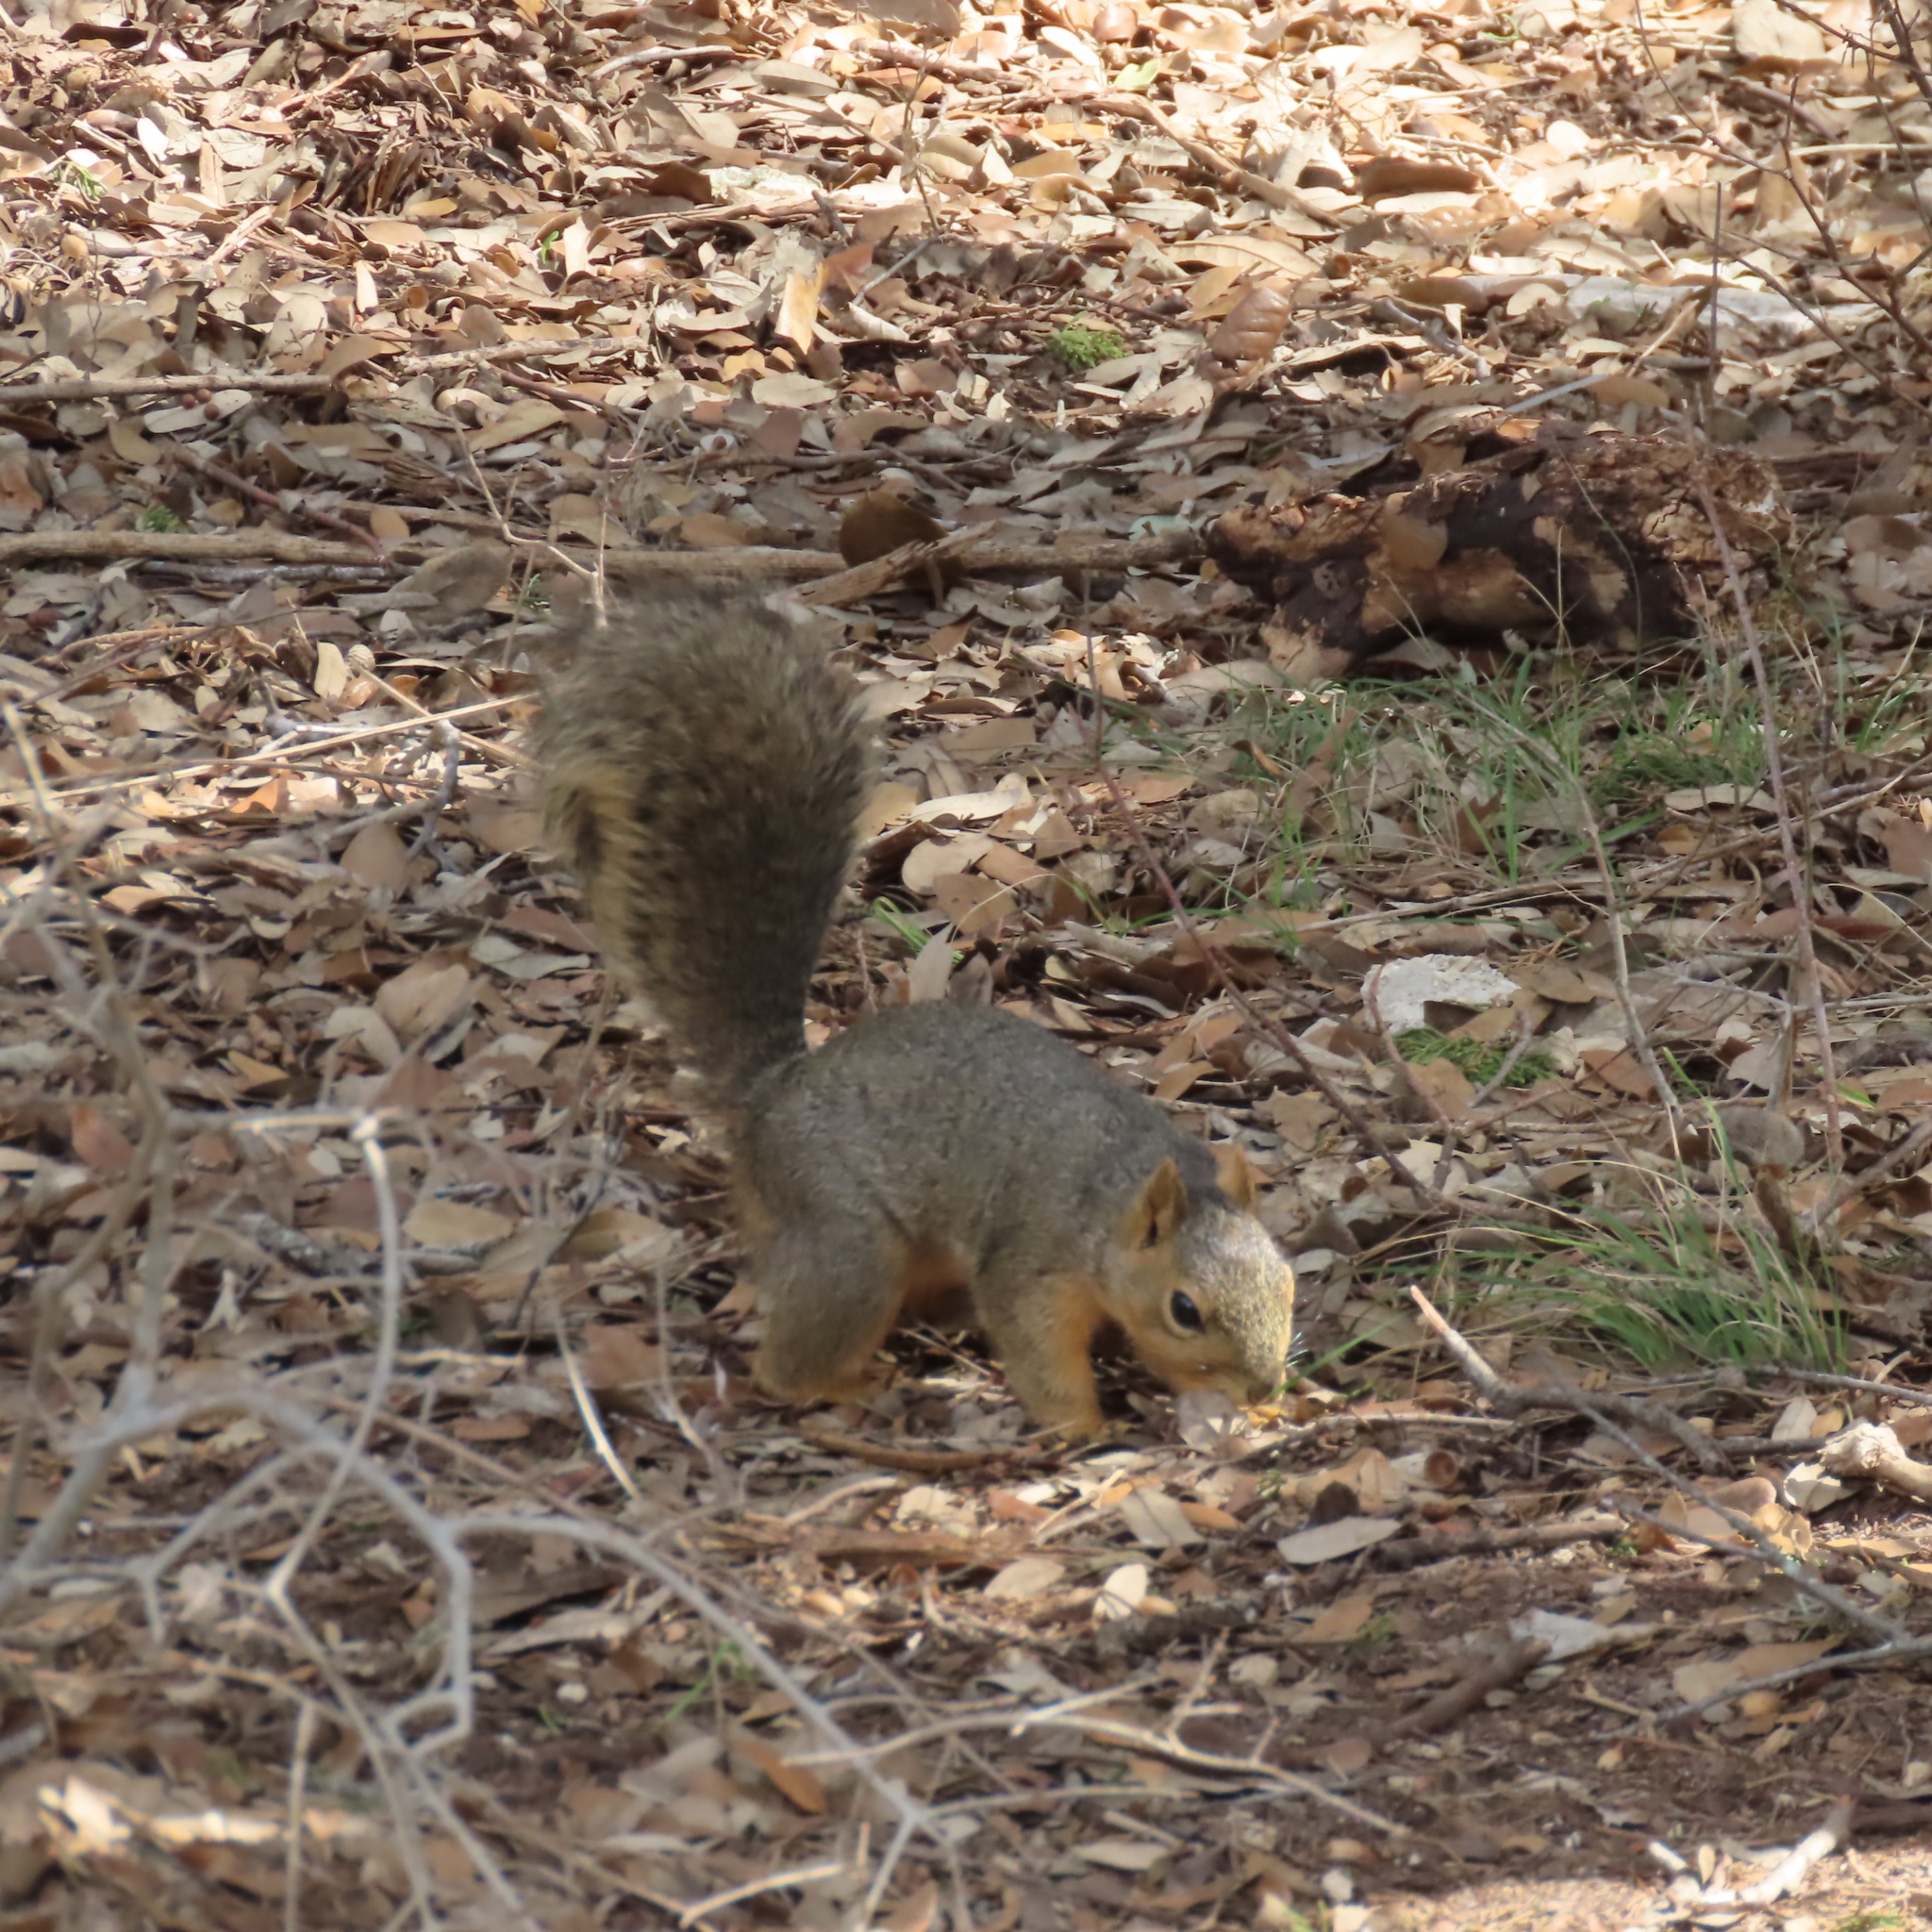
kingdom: Animalia
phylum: Chordata
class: Mammalia
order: Rodentia
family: Sciuridae
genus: Sciurus
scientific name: Sciurus niger
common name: Fox squirrel
